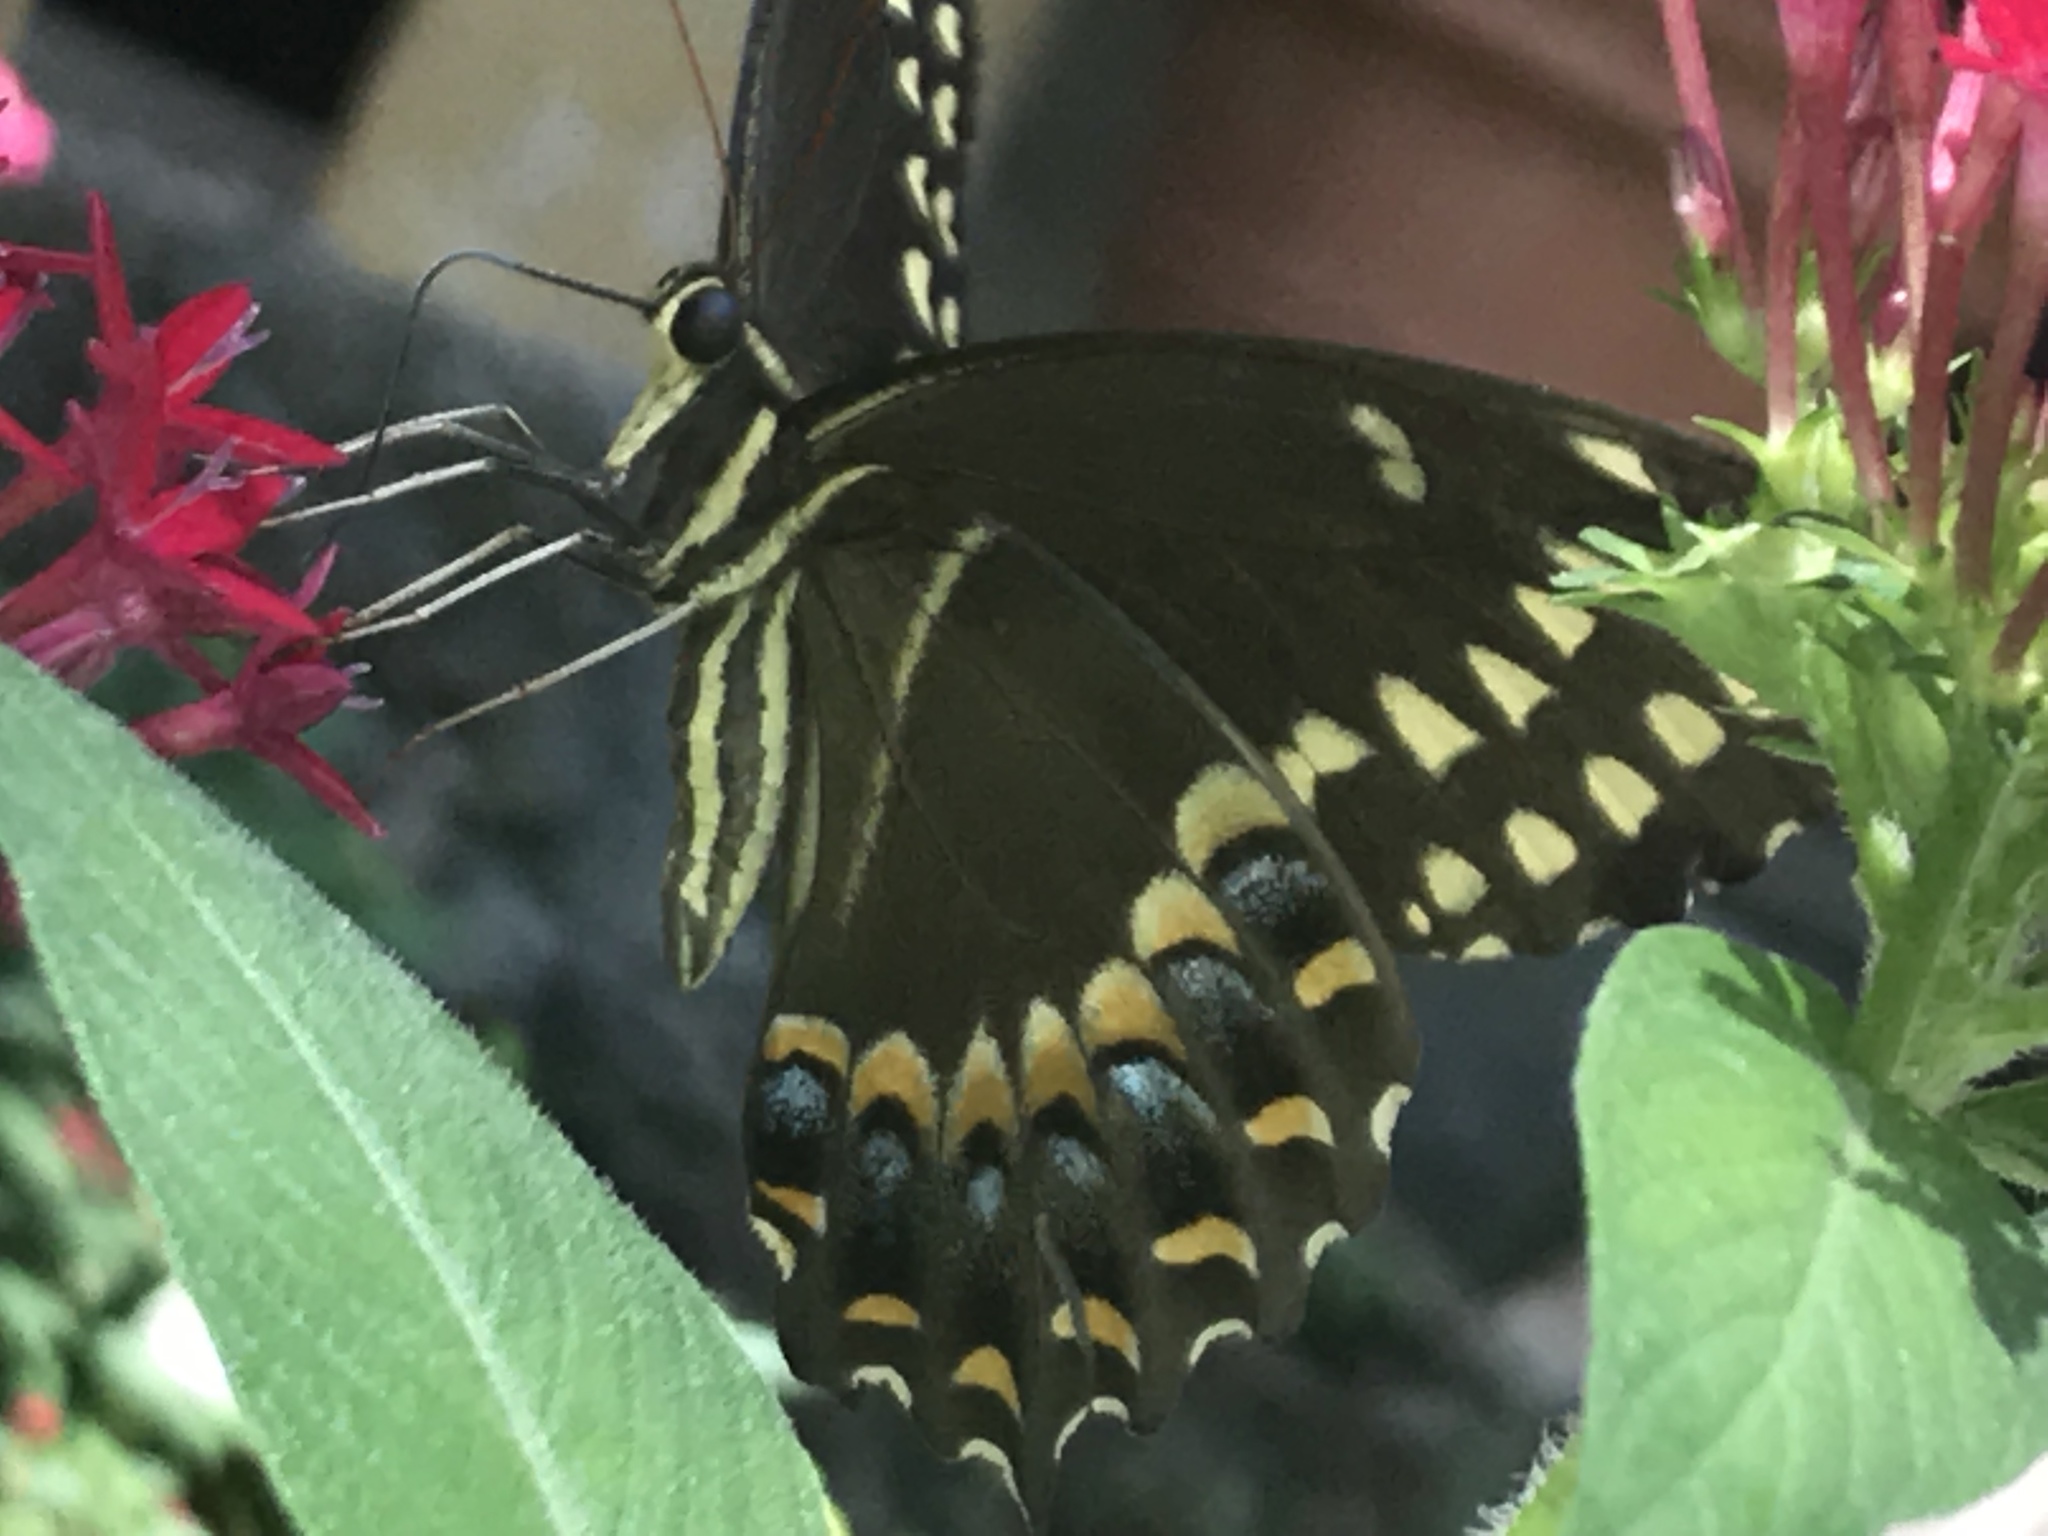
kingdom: Animalia
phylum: Arthropoda
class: Insecta
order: Lepidoptera
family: Papilionidae
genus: Papilio
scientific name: Papilio palamedes
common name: Palamedes swallowtail
